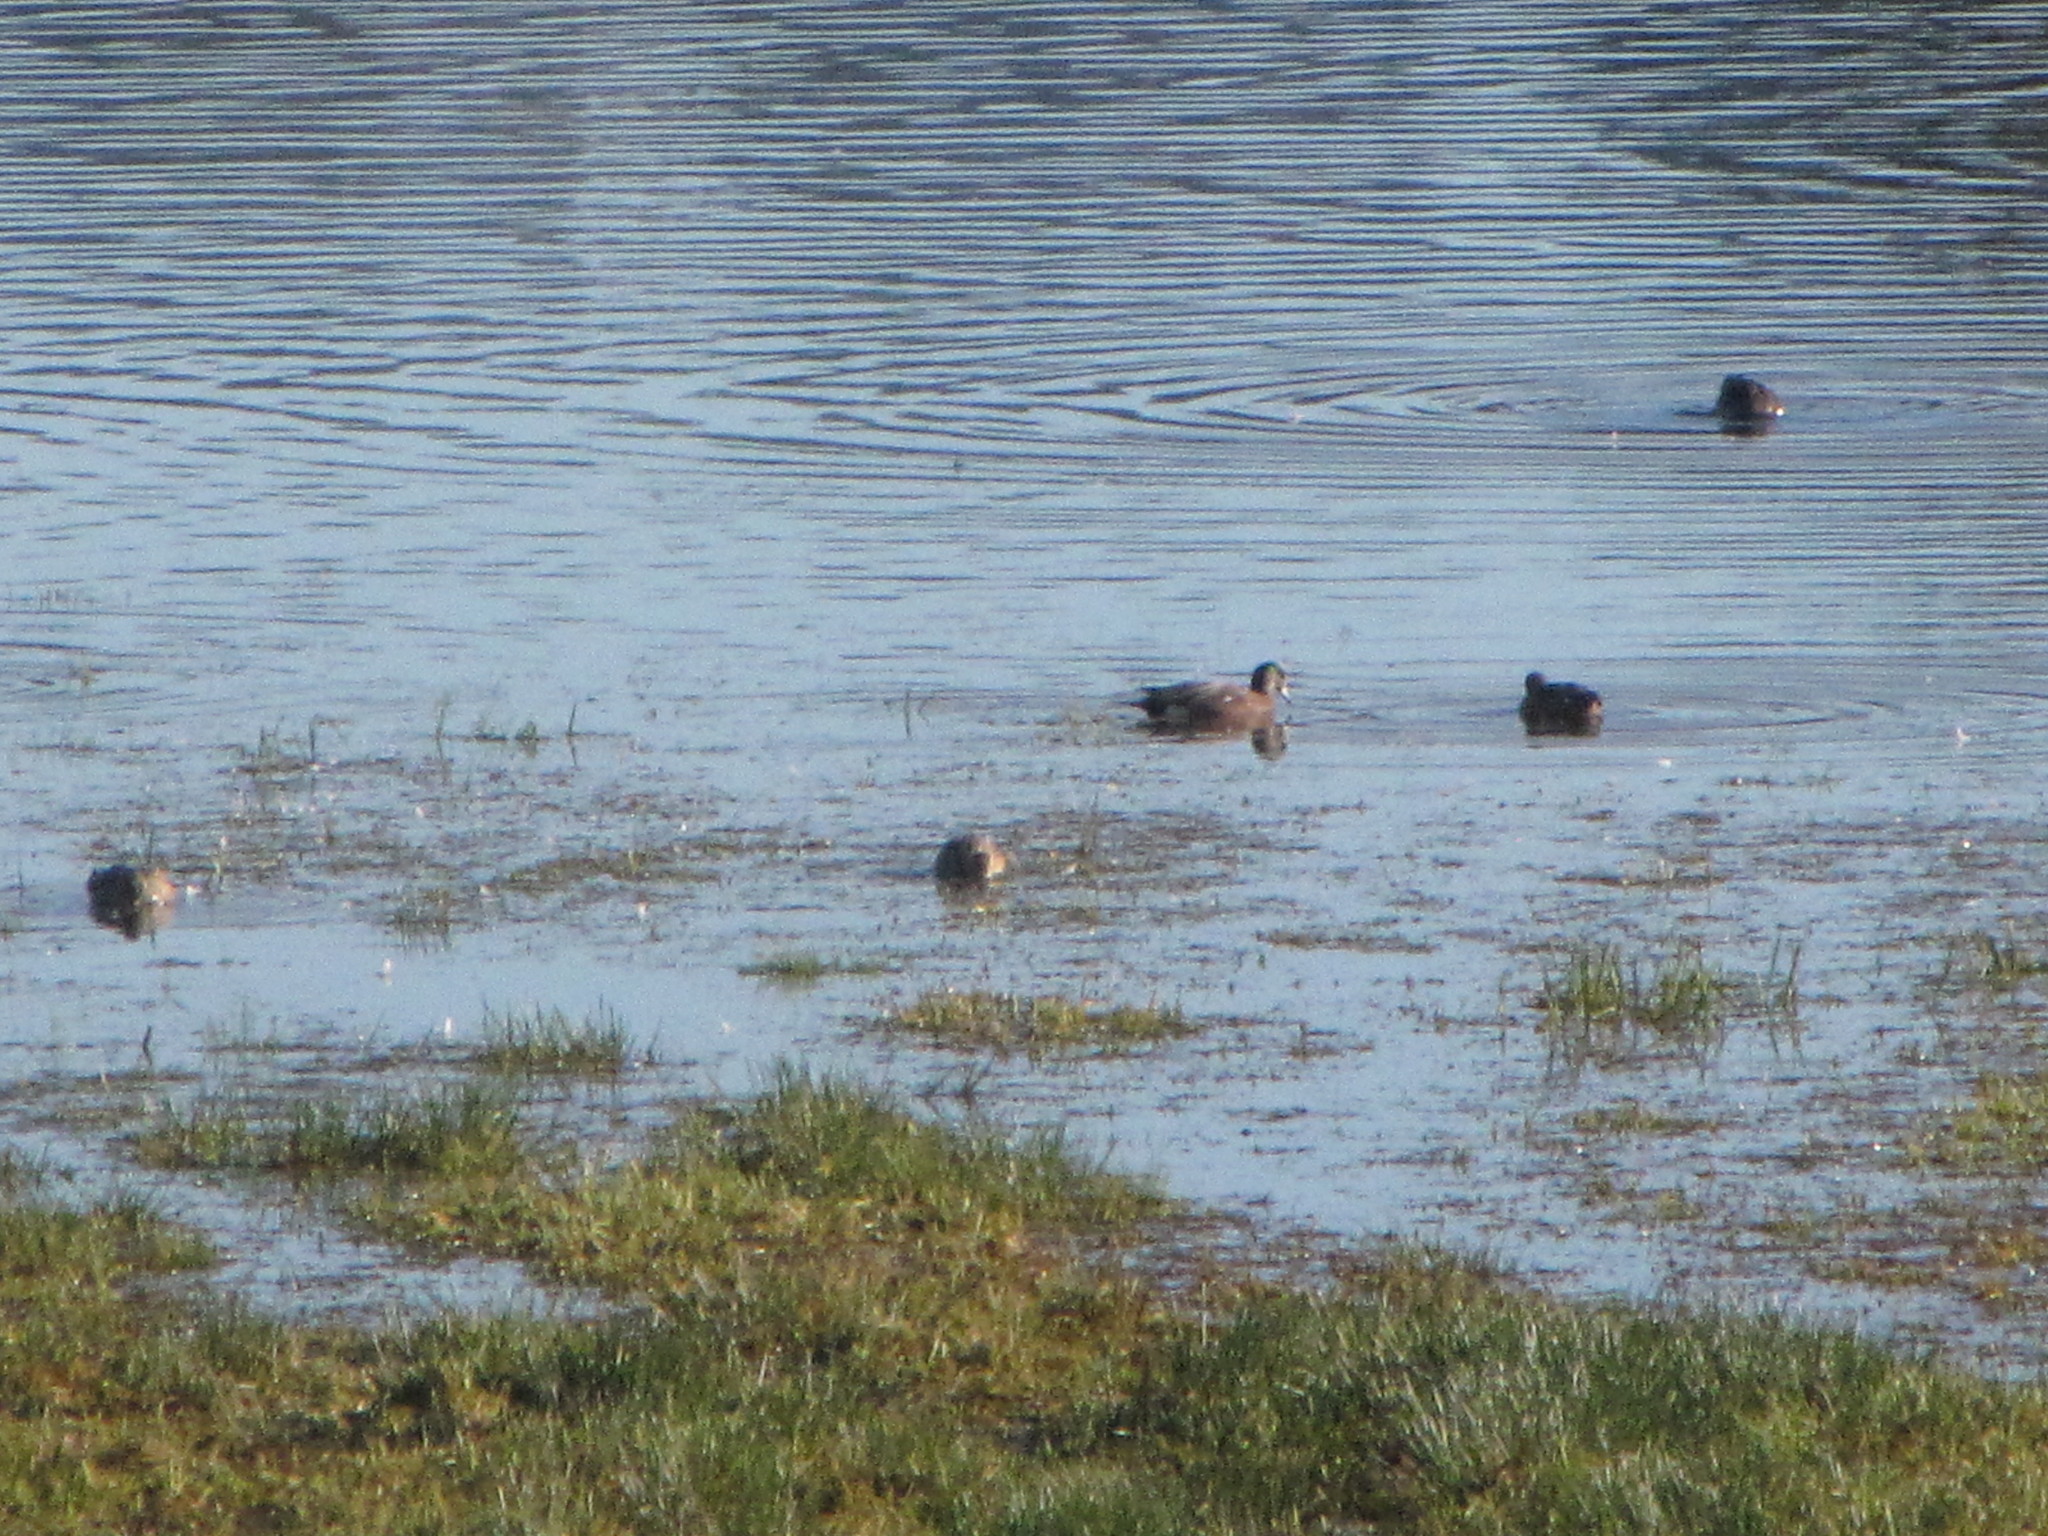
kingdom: Animalia
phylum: Chordata
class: Aves
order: Anseriformes
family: Anatidae
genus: Mareca
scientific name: Mareca americana
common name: American wigeon
